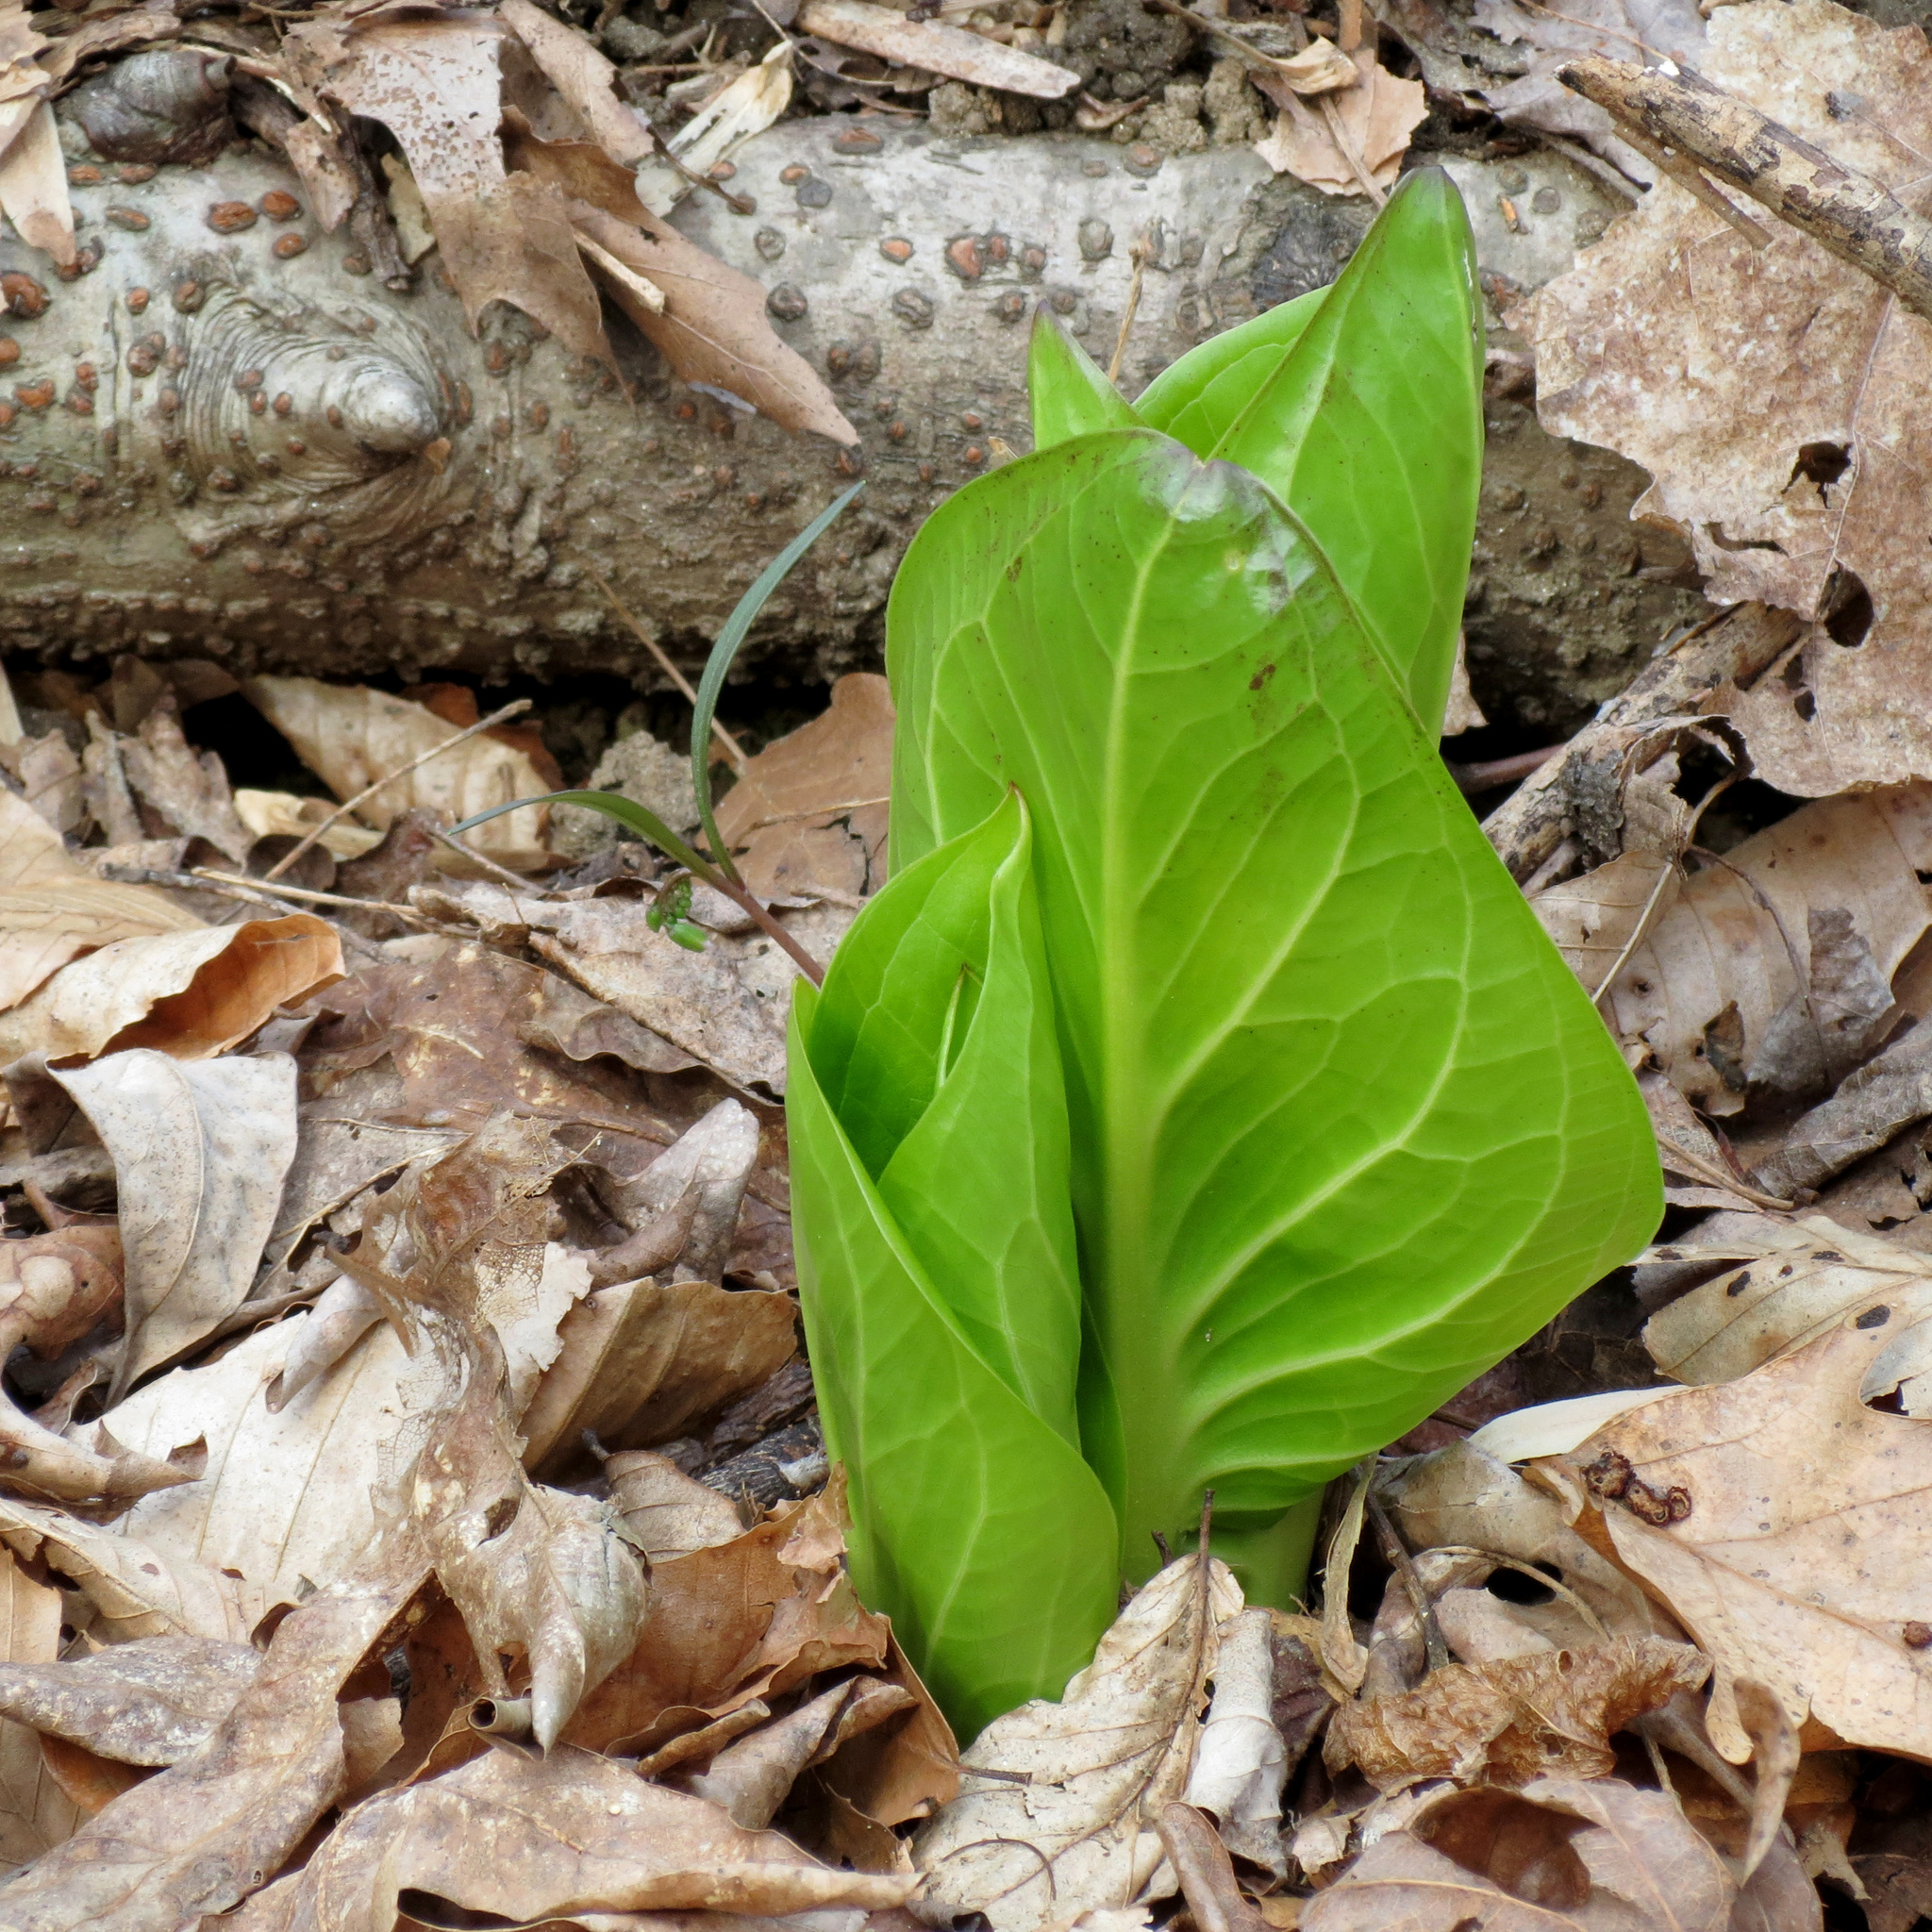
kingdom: Plantae
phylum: Tracheophyta
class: Liliopsida
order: Alismatales
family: Araceae
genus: Symplocarpus
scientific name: Symplocarpus foetidus
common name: Eastern skunk cabbage
